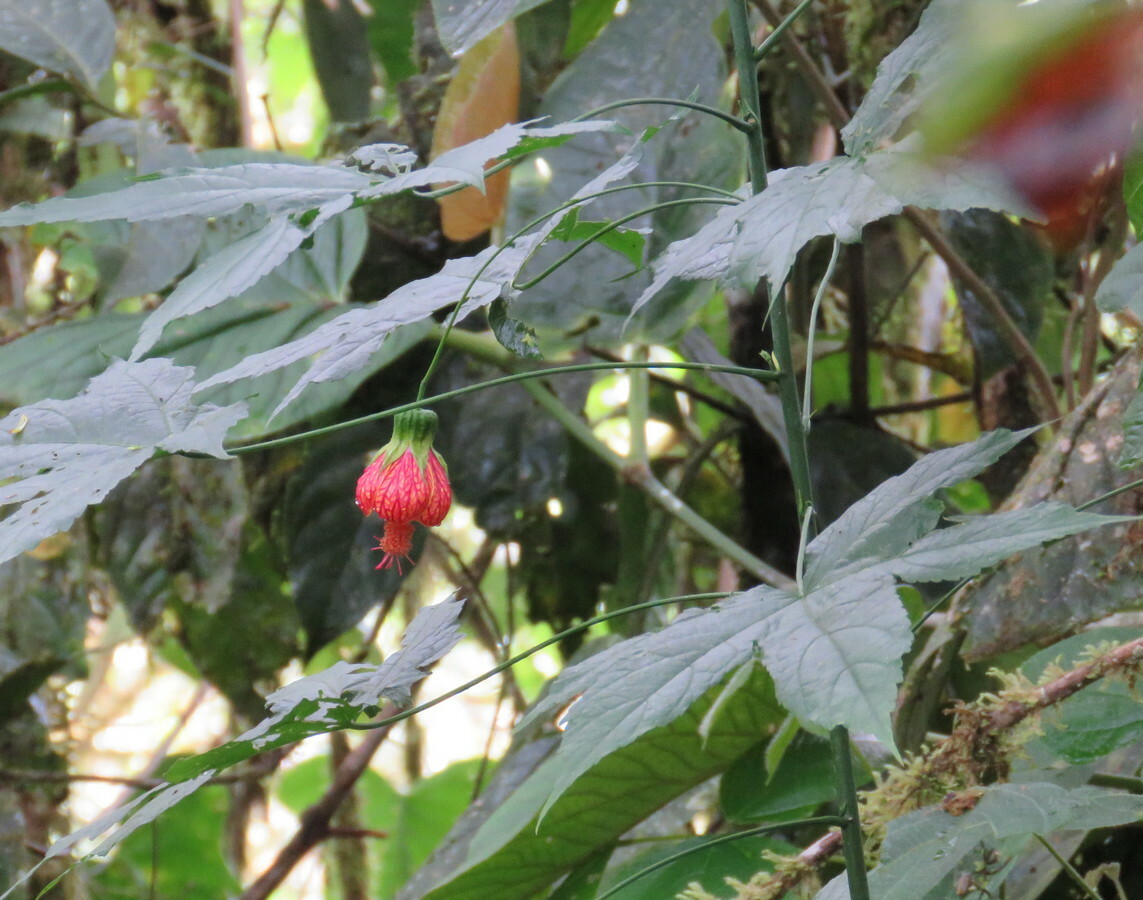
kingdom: Plantae
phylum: Tracheophyta
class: Magnoliopsida
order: Malvales
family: Malvaceae
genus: Callianthe
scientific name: Callianthe picta
